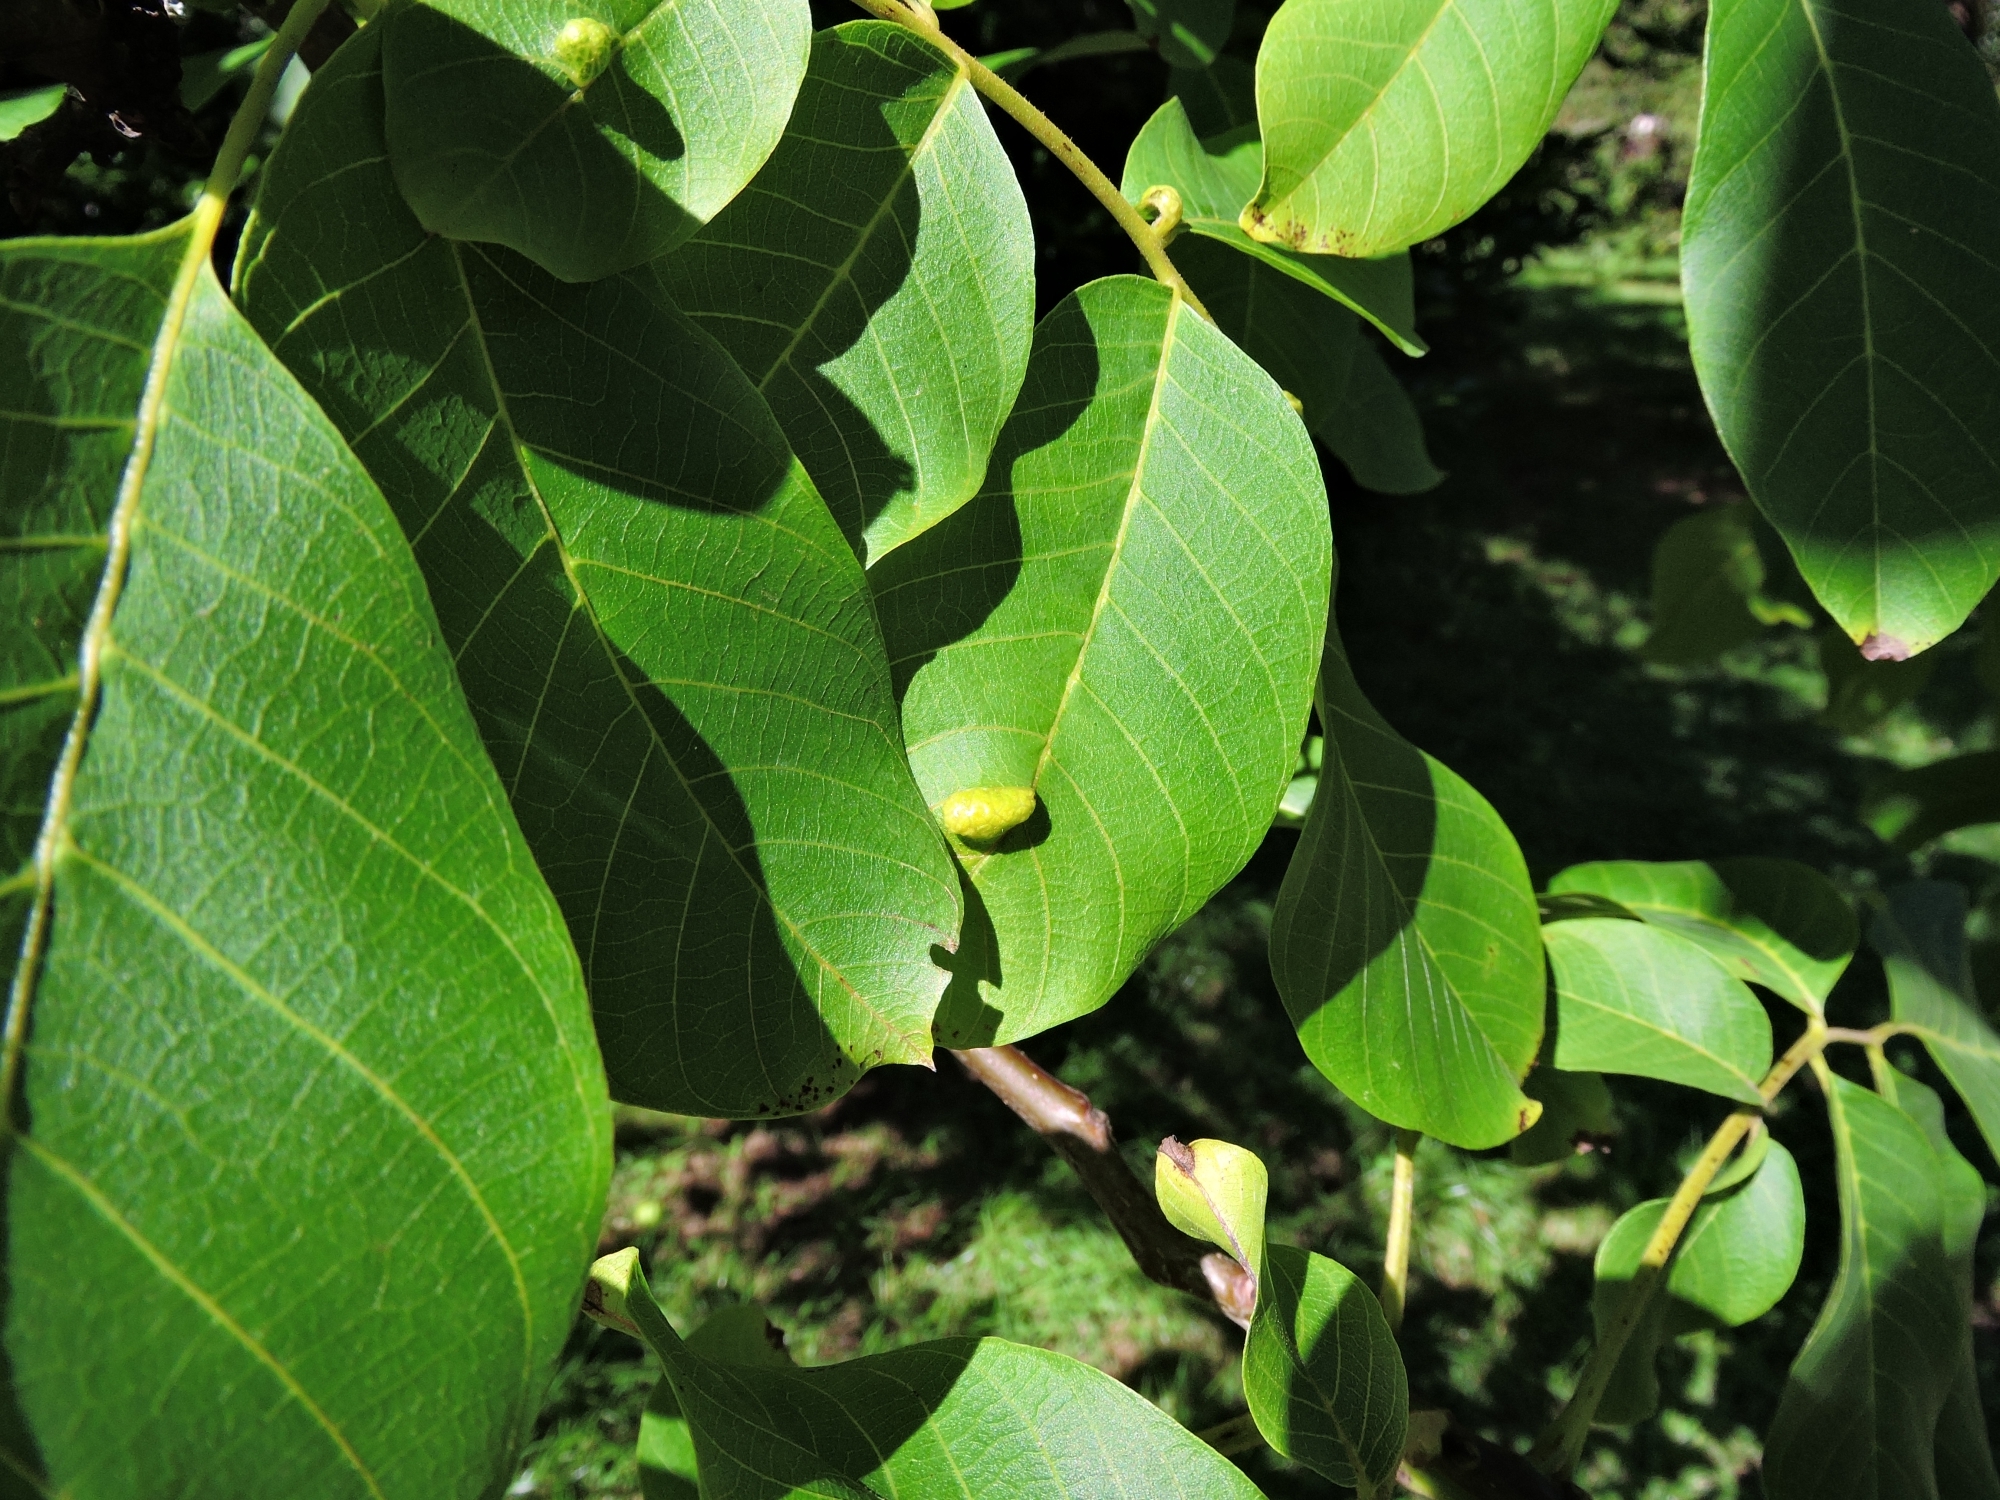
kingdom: Animalia
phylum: Arthropoda
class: Arachnida
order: Trombidiformes
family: Eriophyidae
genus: Aceria
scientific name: Aceria erinea
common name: Persian walnut erineum mite
